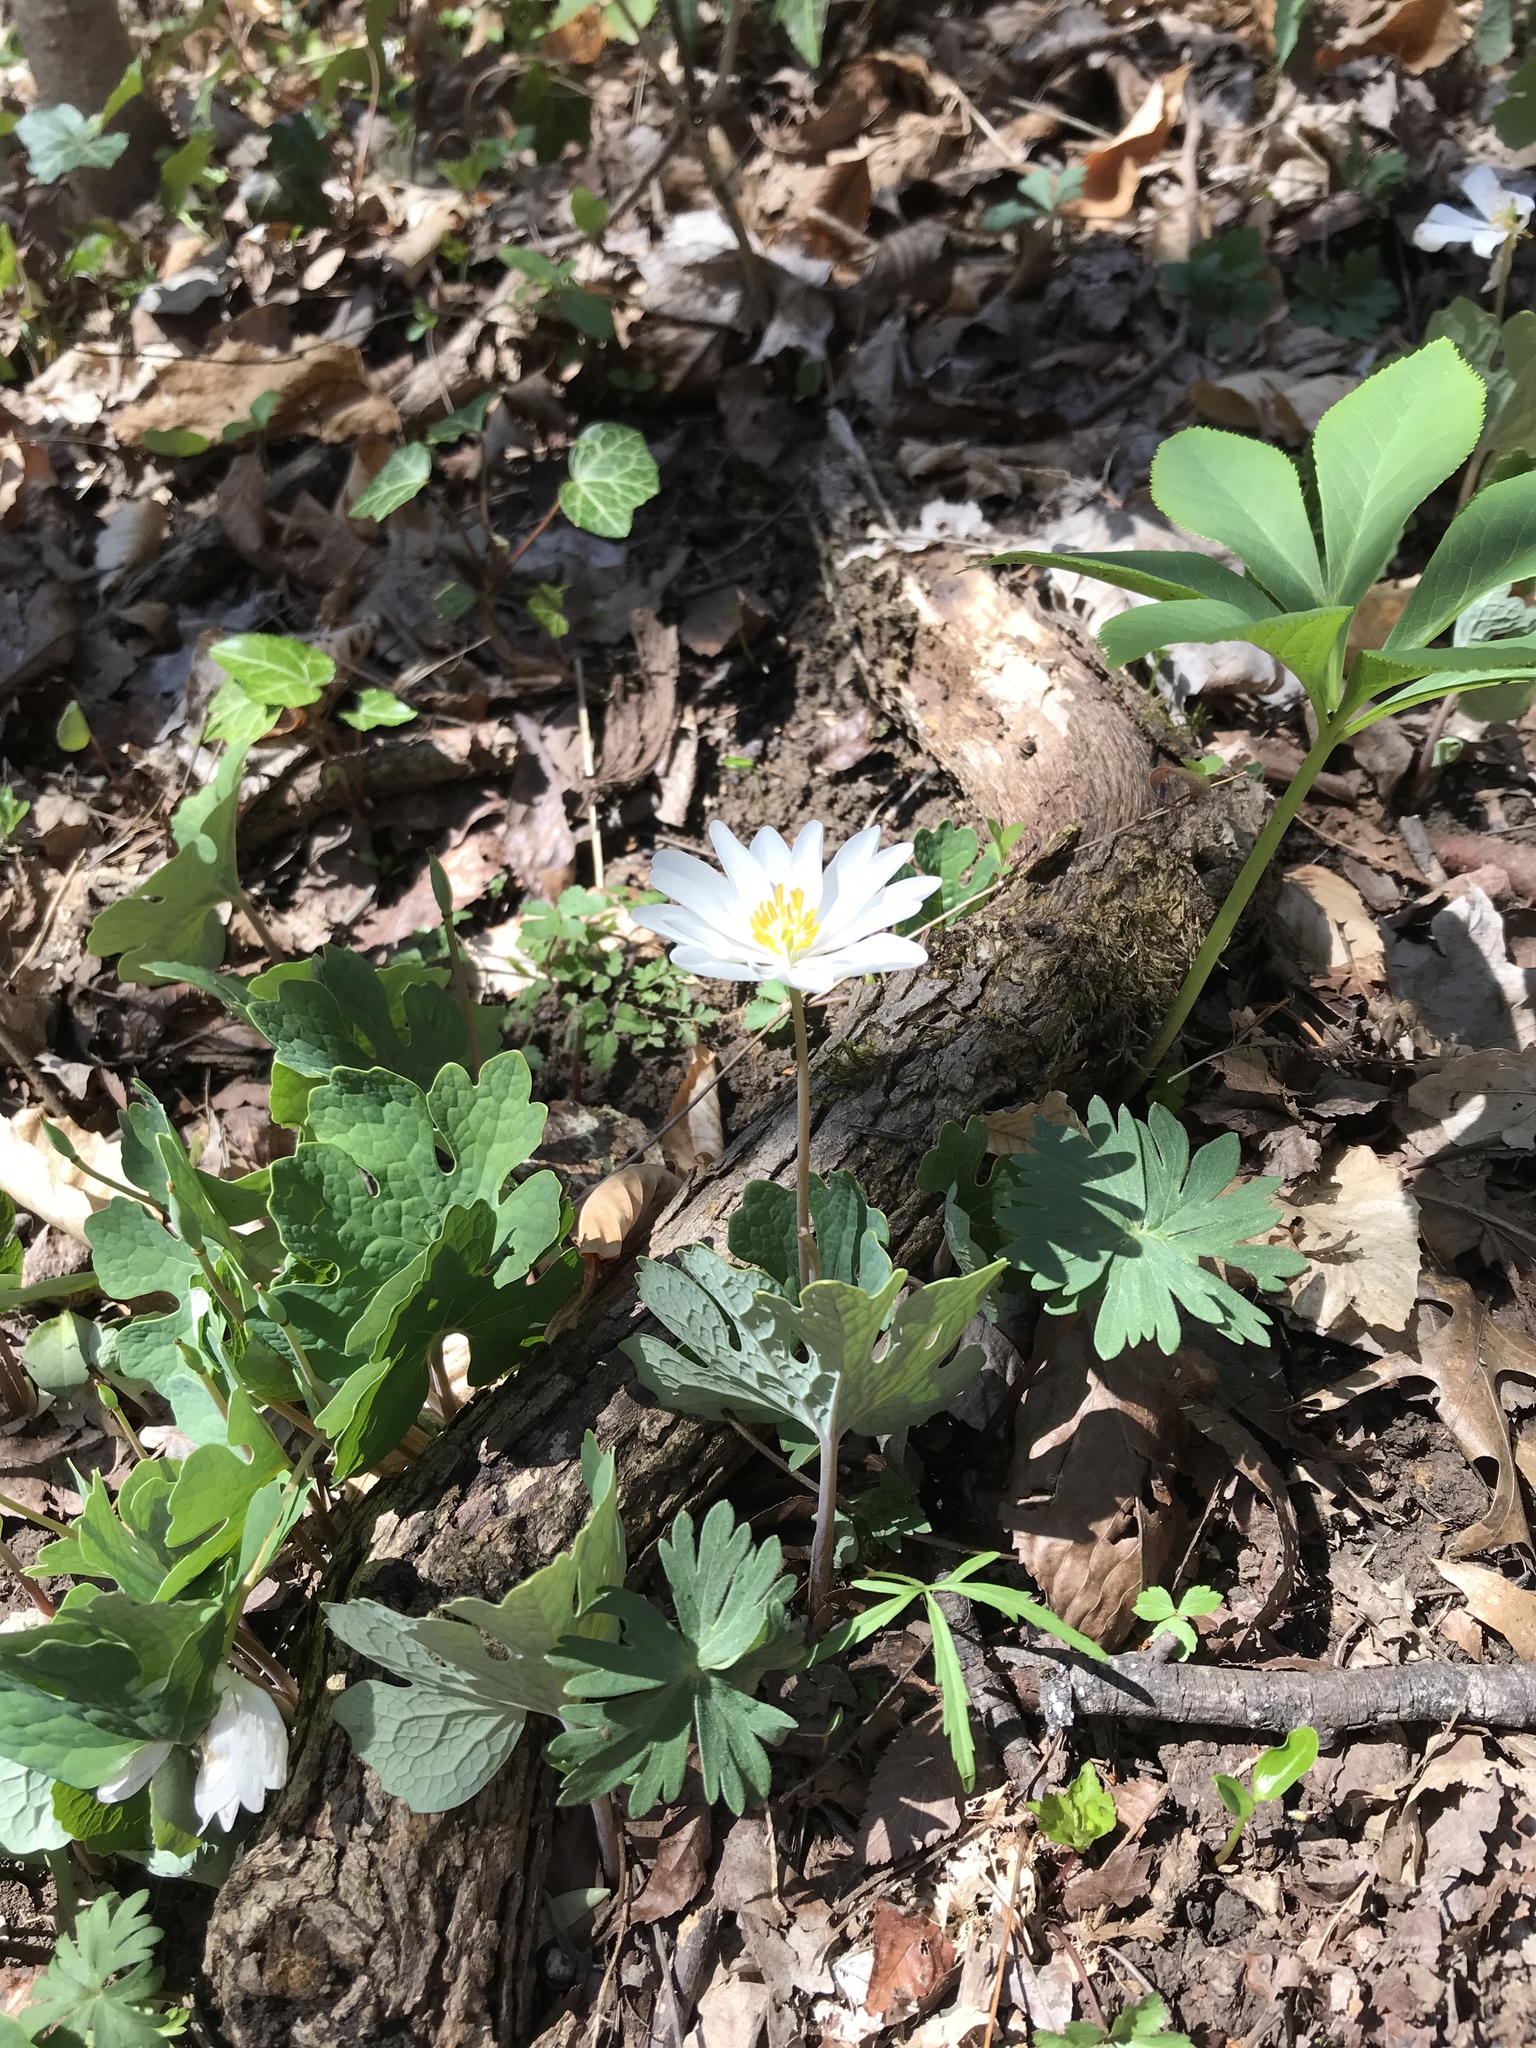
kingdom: Plantae
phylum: Tracheophyta
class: Magnoliopsida
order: Ranunculales
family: Papaveraceae
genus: Sanguinaria
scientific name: Sanguinaria canadensis
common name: Bloodroot
